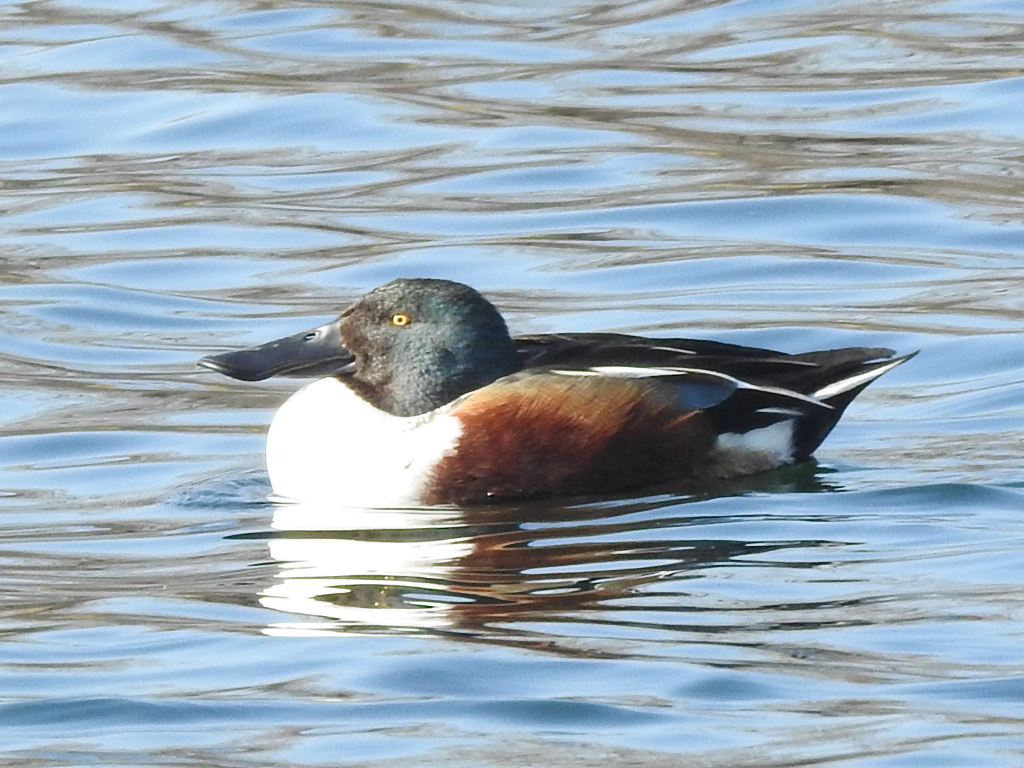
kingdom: Animalia
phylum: Chordata
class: Aves
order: Anseriformes
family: Anatidae
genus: Spatula
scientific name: Spatula clypeata
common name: Northern shoveler
